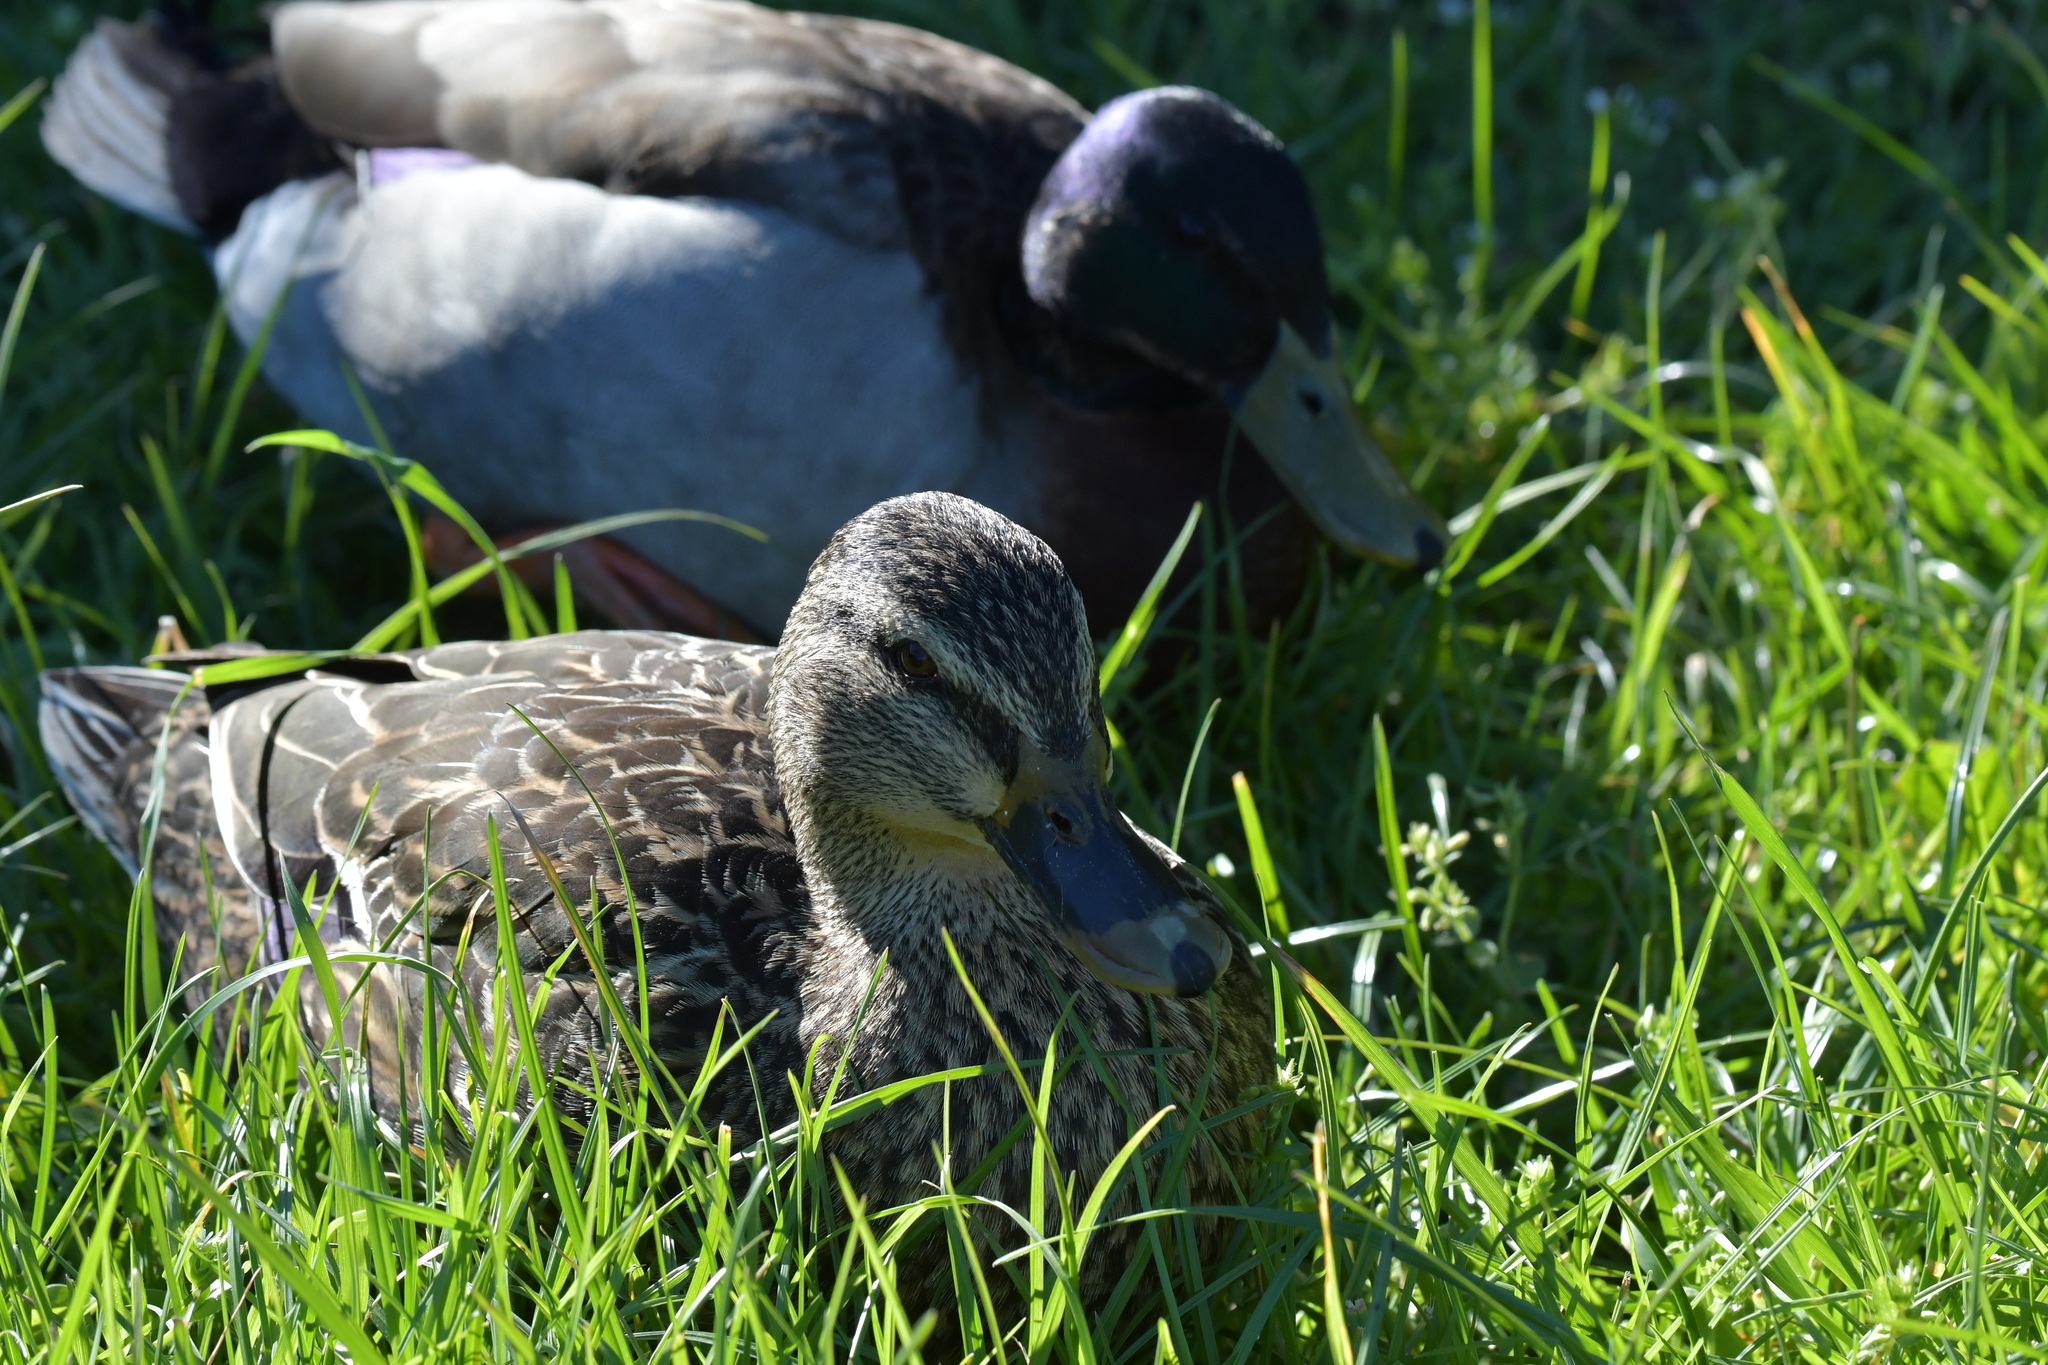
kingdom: Animalia
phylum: Chordata
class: Aves
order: Anseriformes
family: Anatidae
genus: Anas
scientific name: Anas platyrhynchos
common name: Mallard
